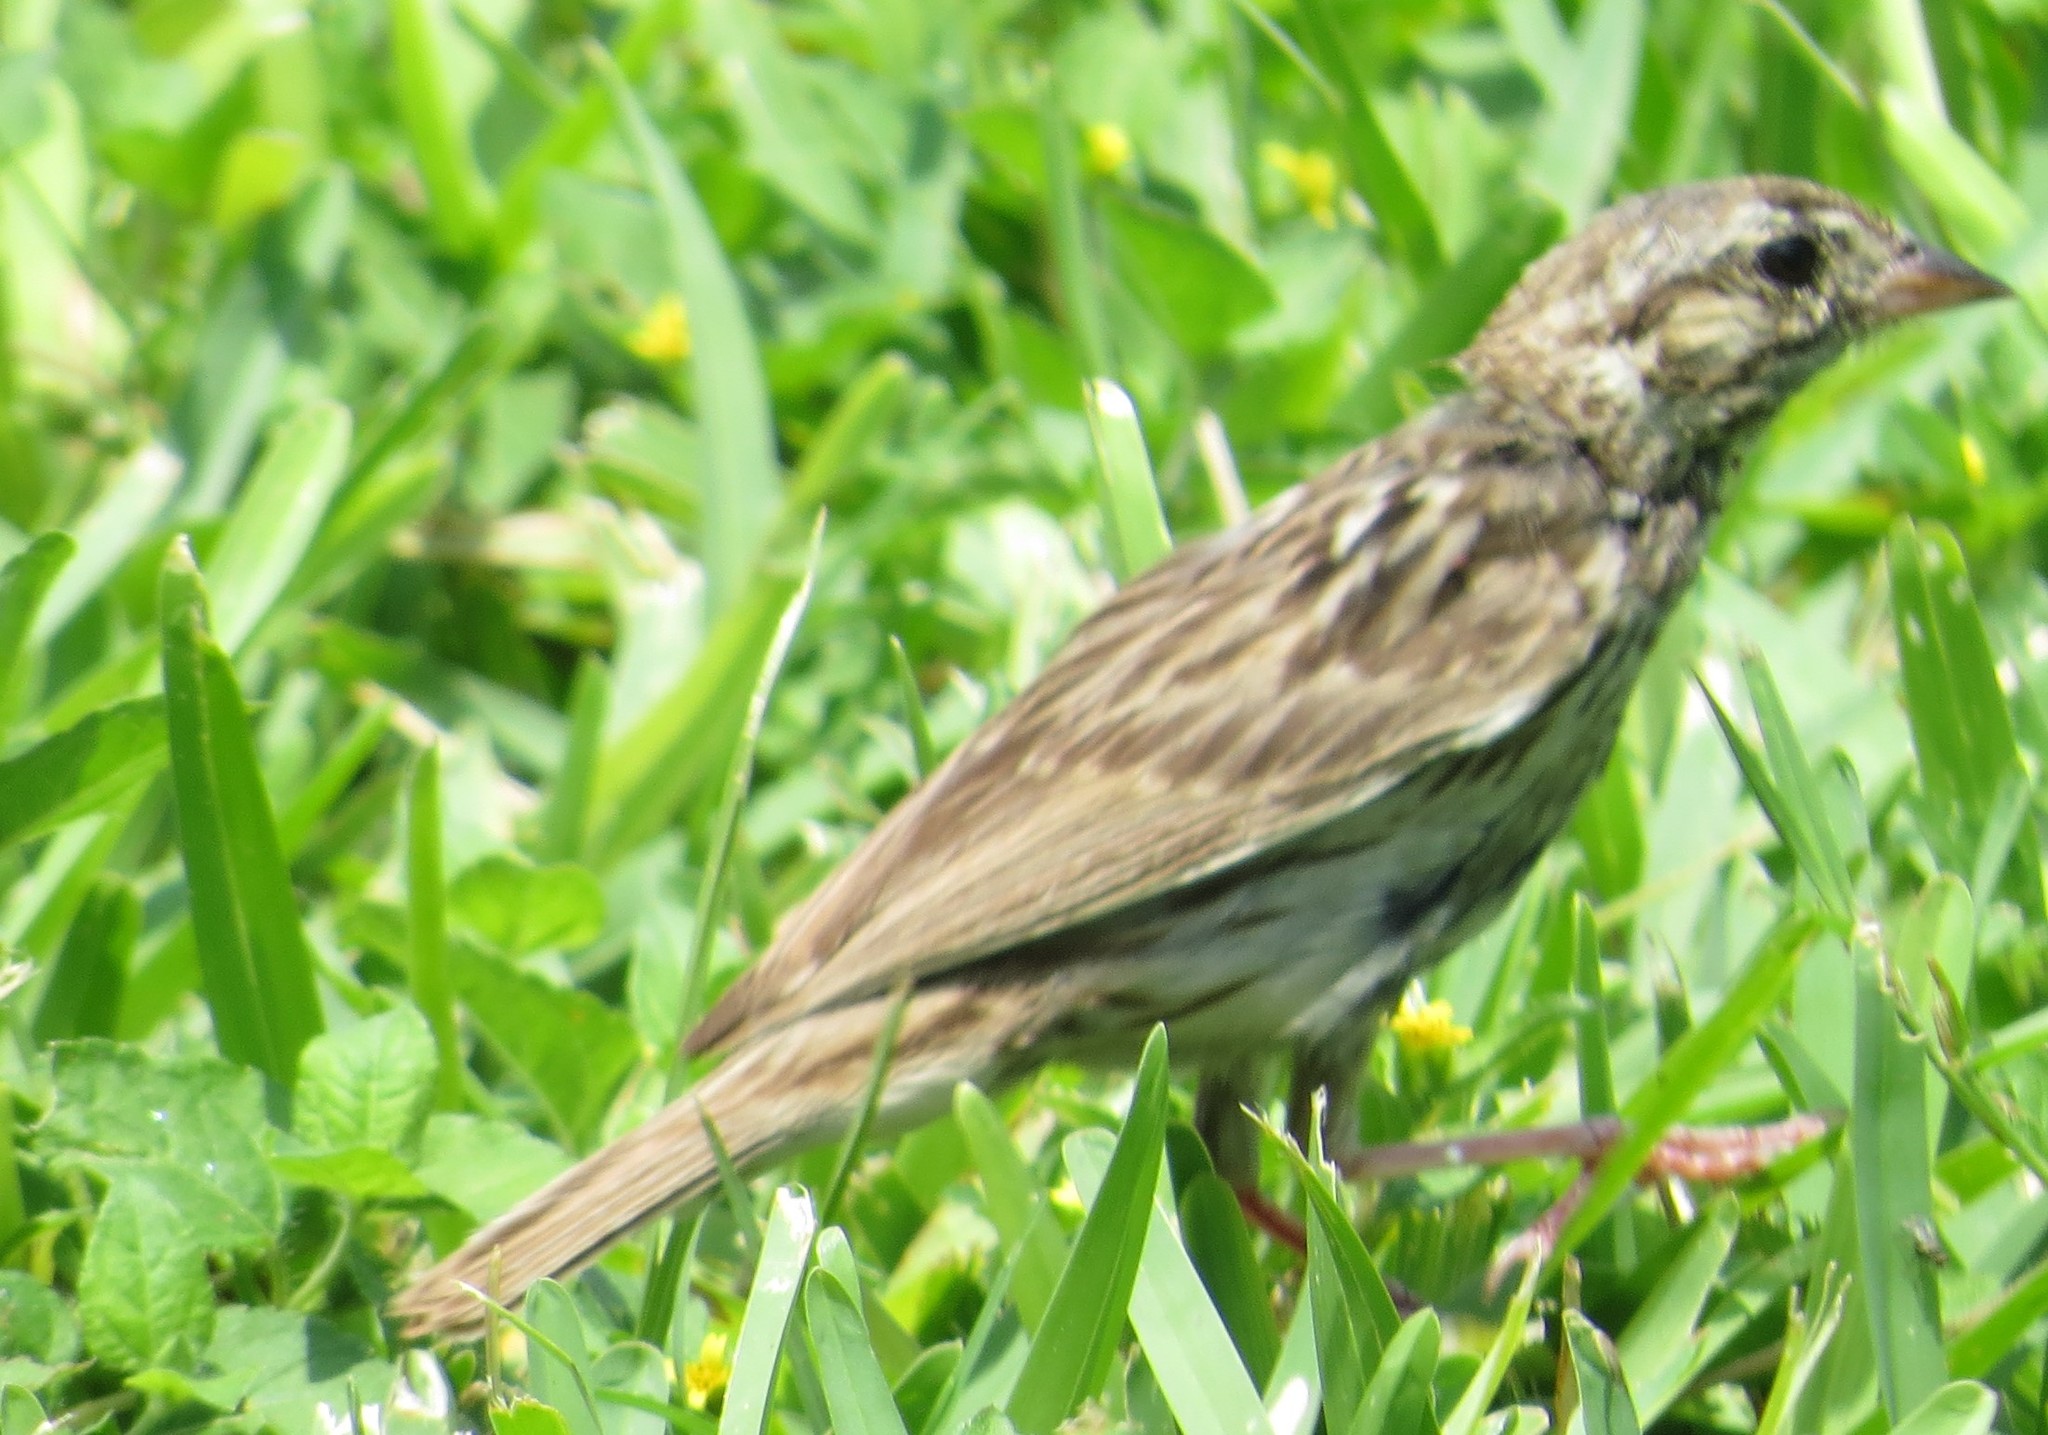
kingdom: Animalia
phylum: Chordata
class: Aves
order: Passeriformes
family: Passerellidae
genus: Passerculus
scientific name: Passerculus sandwichensis
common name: Savannah sparrow
